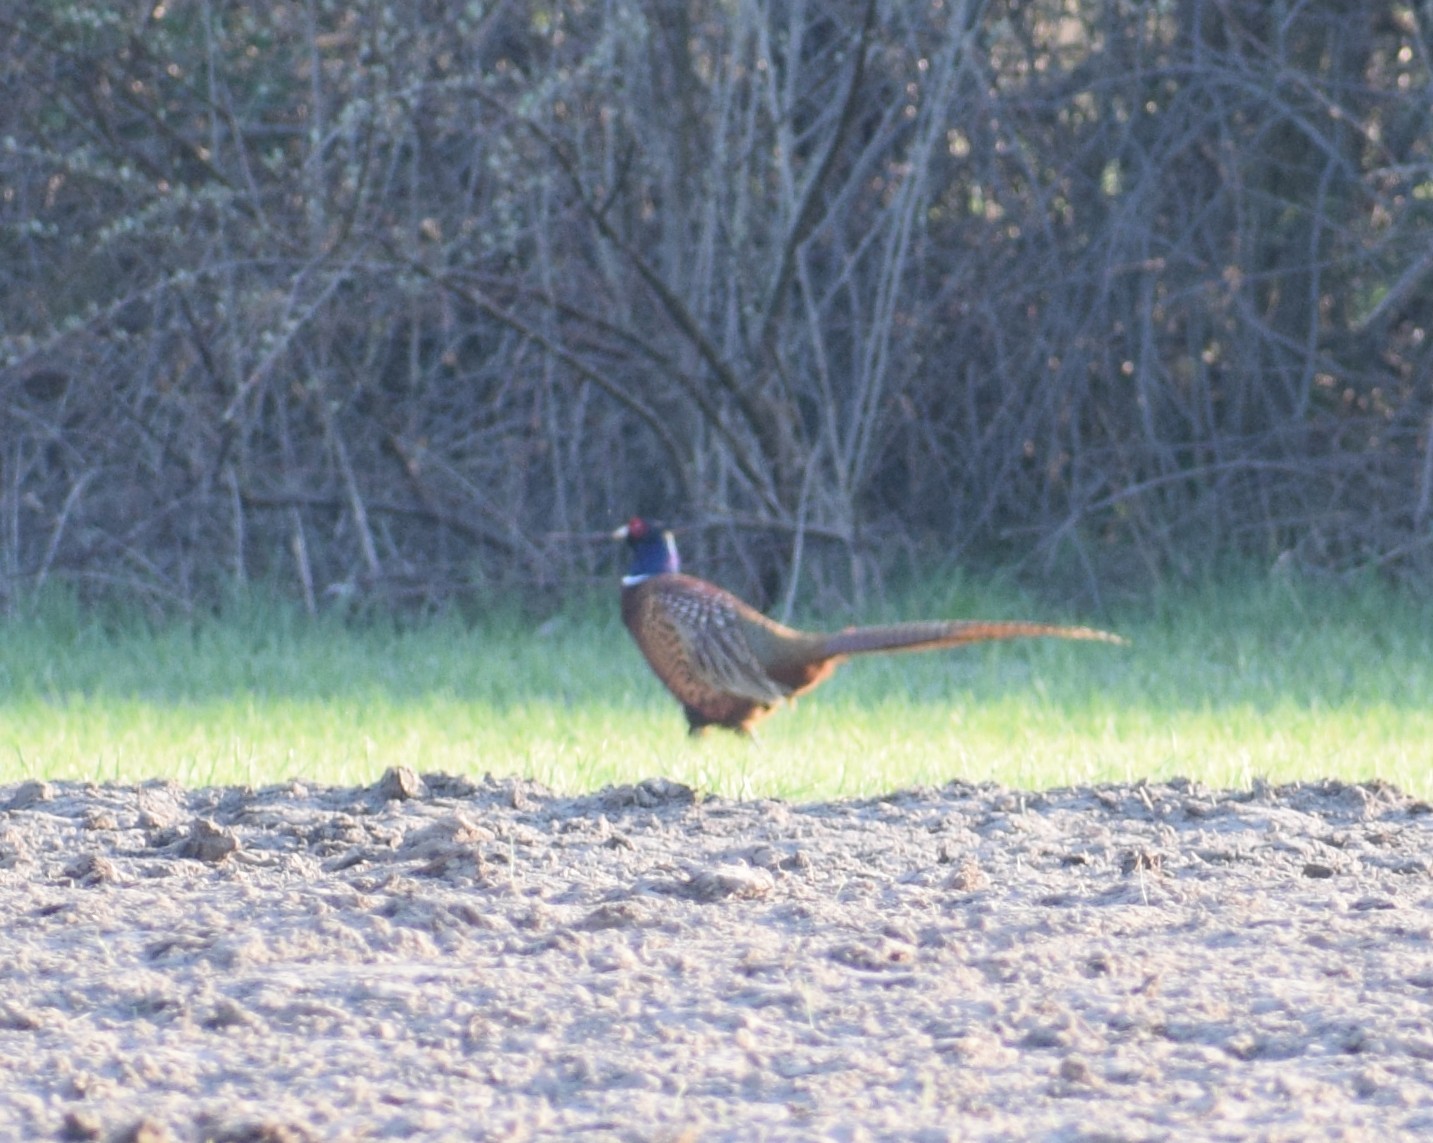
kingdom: Animalia
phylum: Chordata
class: Aves
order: Galliformes
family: Phasianidae
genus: Phasianus
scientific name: Phasianus colchicus
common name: Common pheasant
